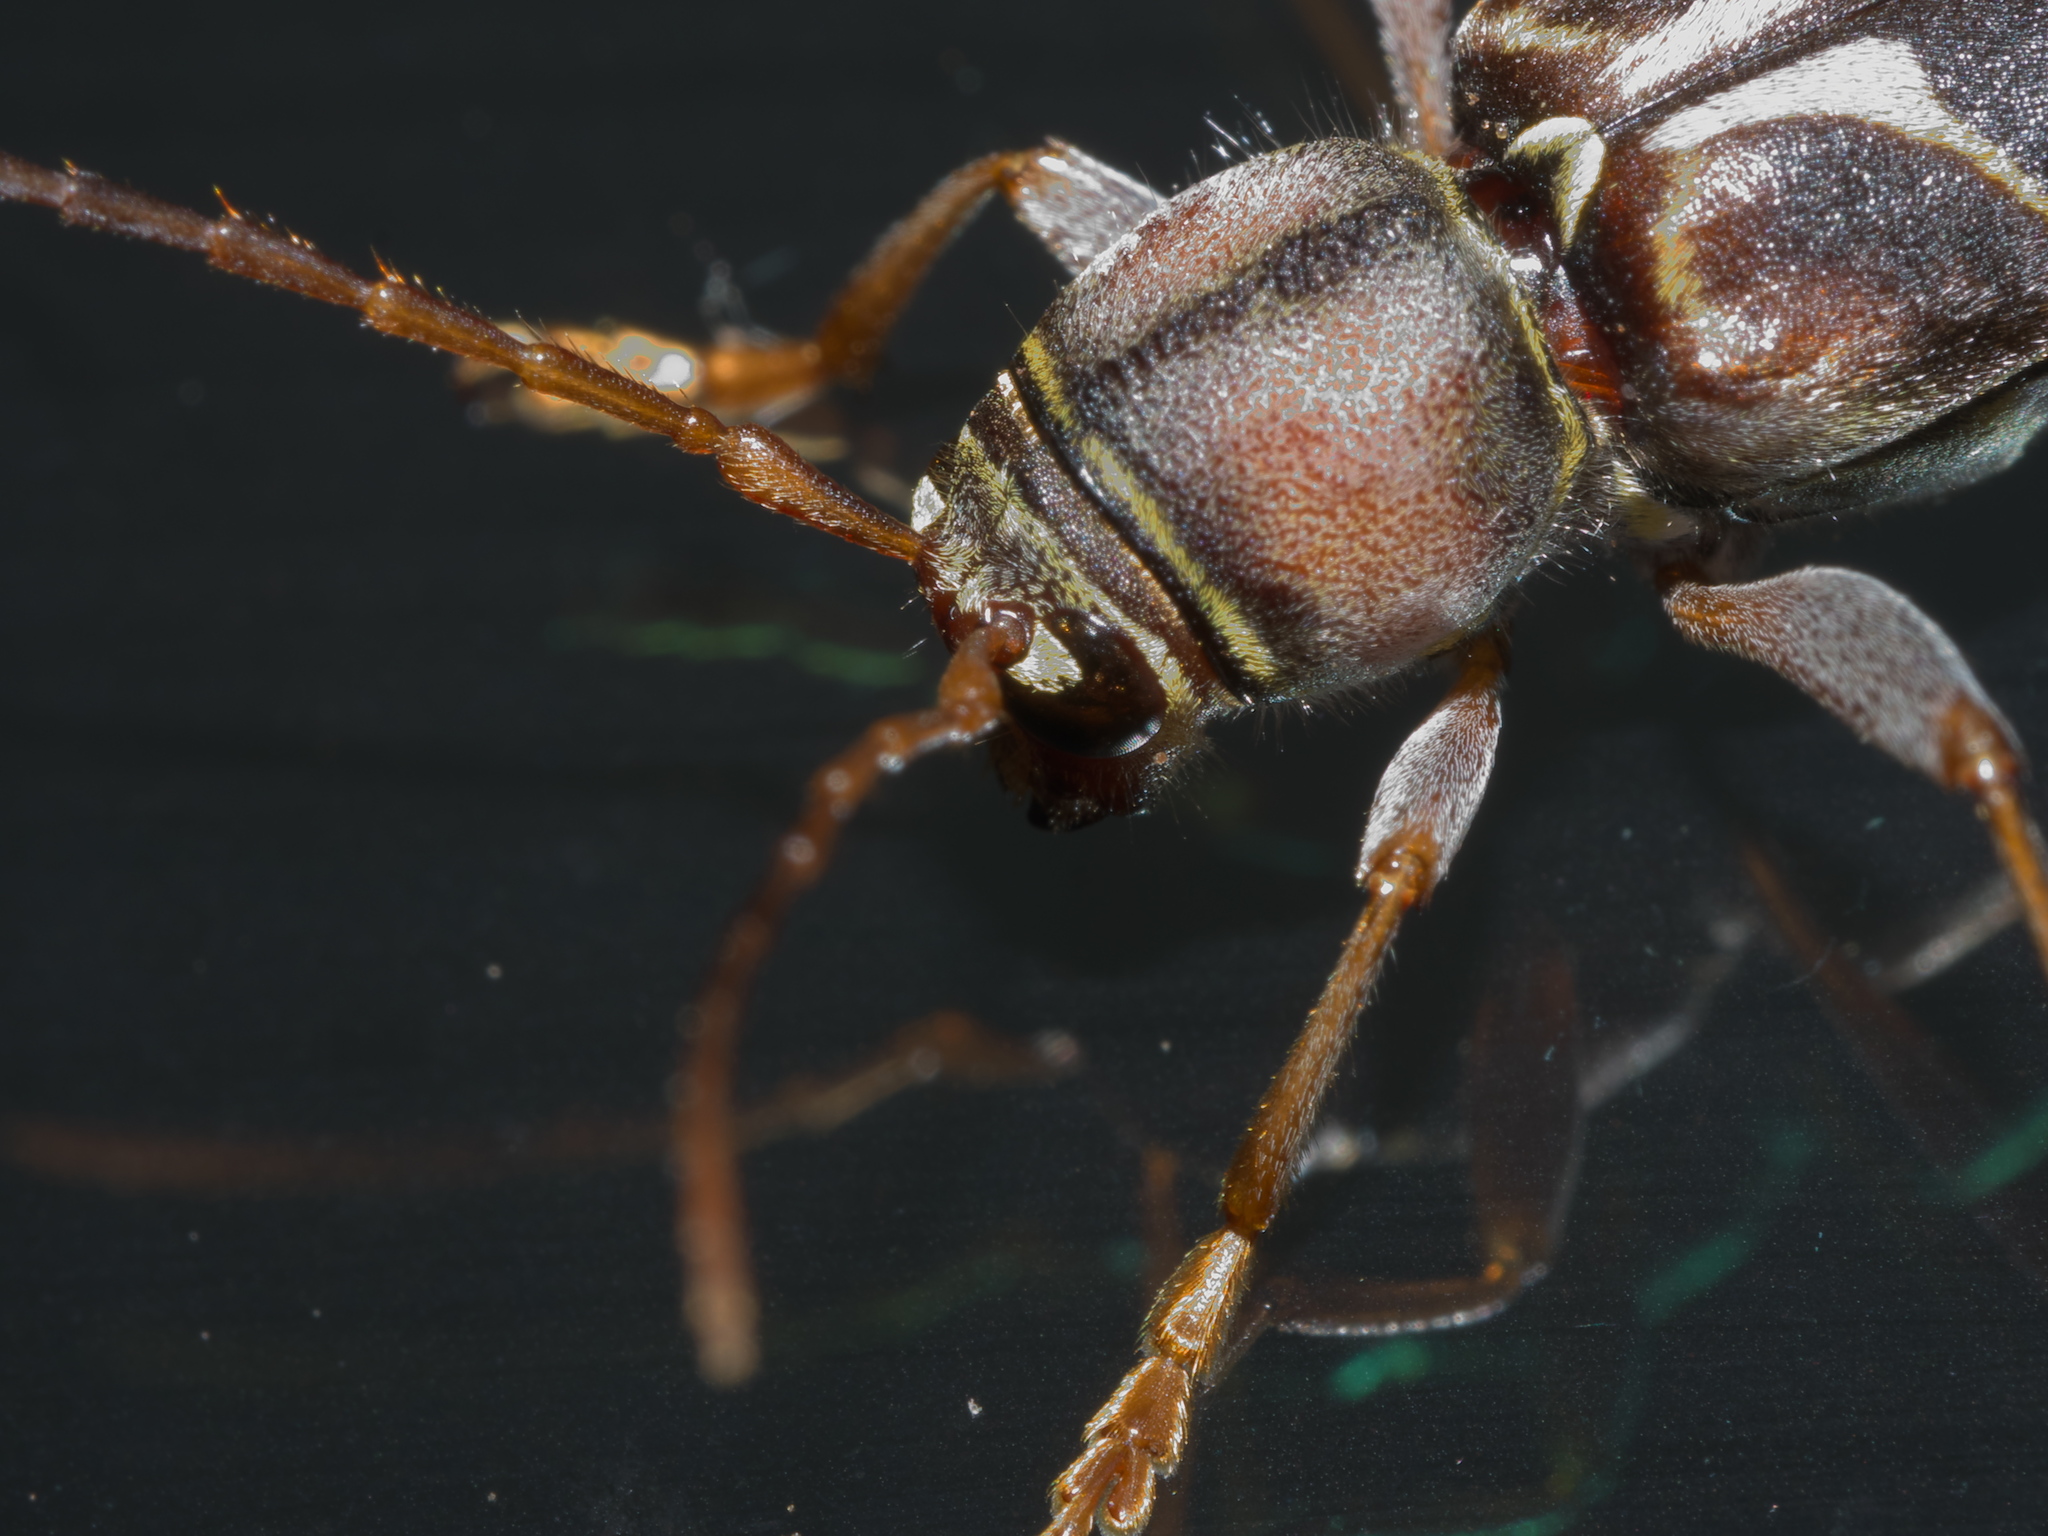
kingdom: Animalia
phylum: Arthropoda
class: Insecta
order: Coleoptera
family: Cerambycidae
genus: Neoclytus
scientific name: Neoclytus mucronatus
